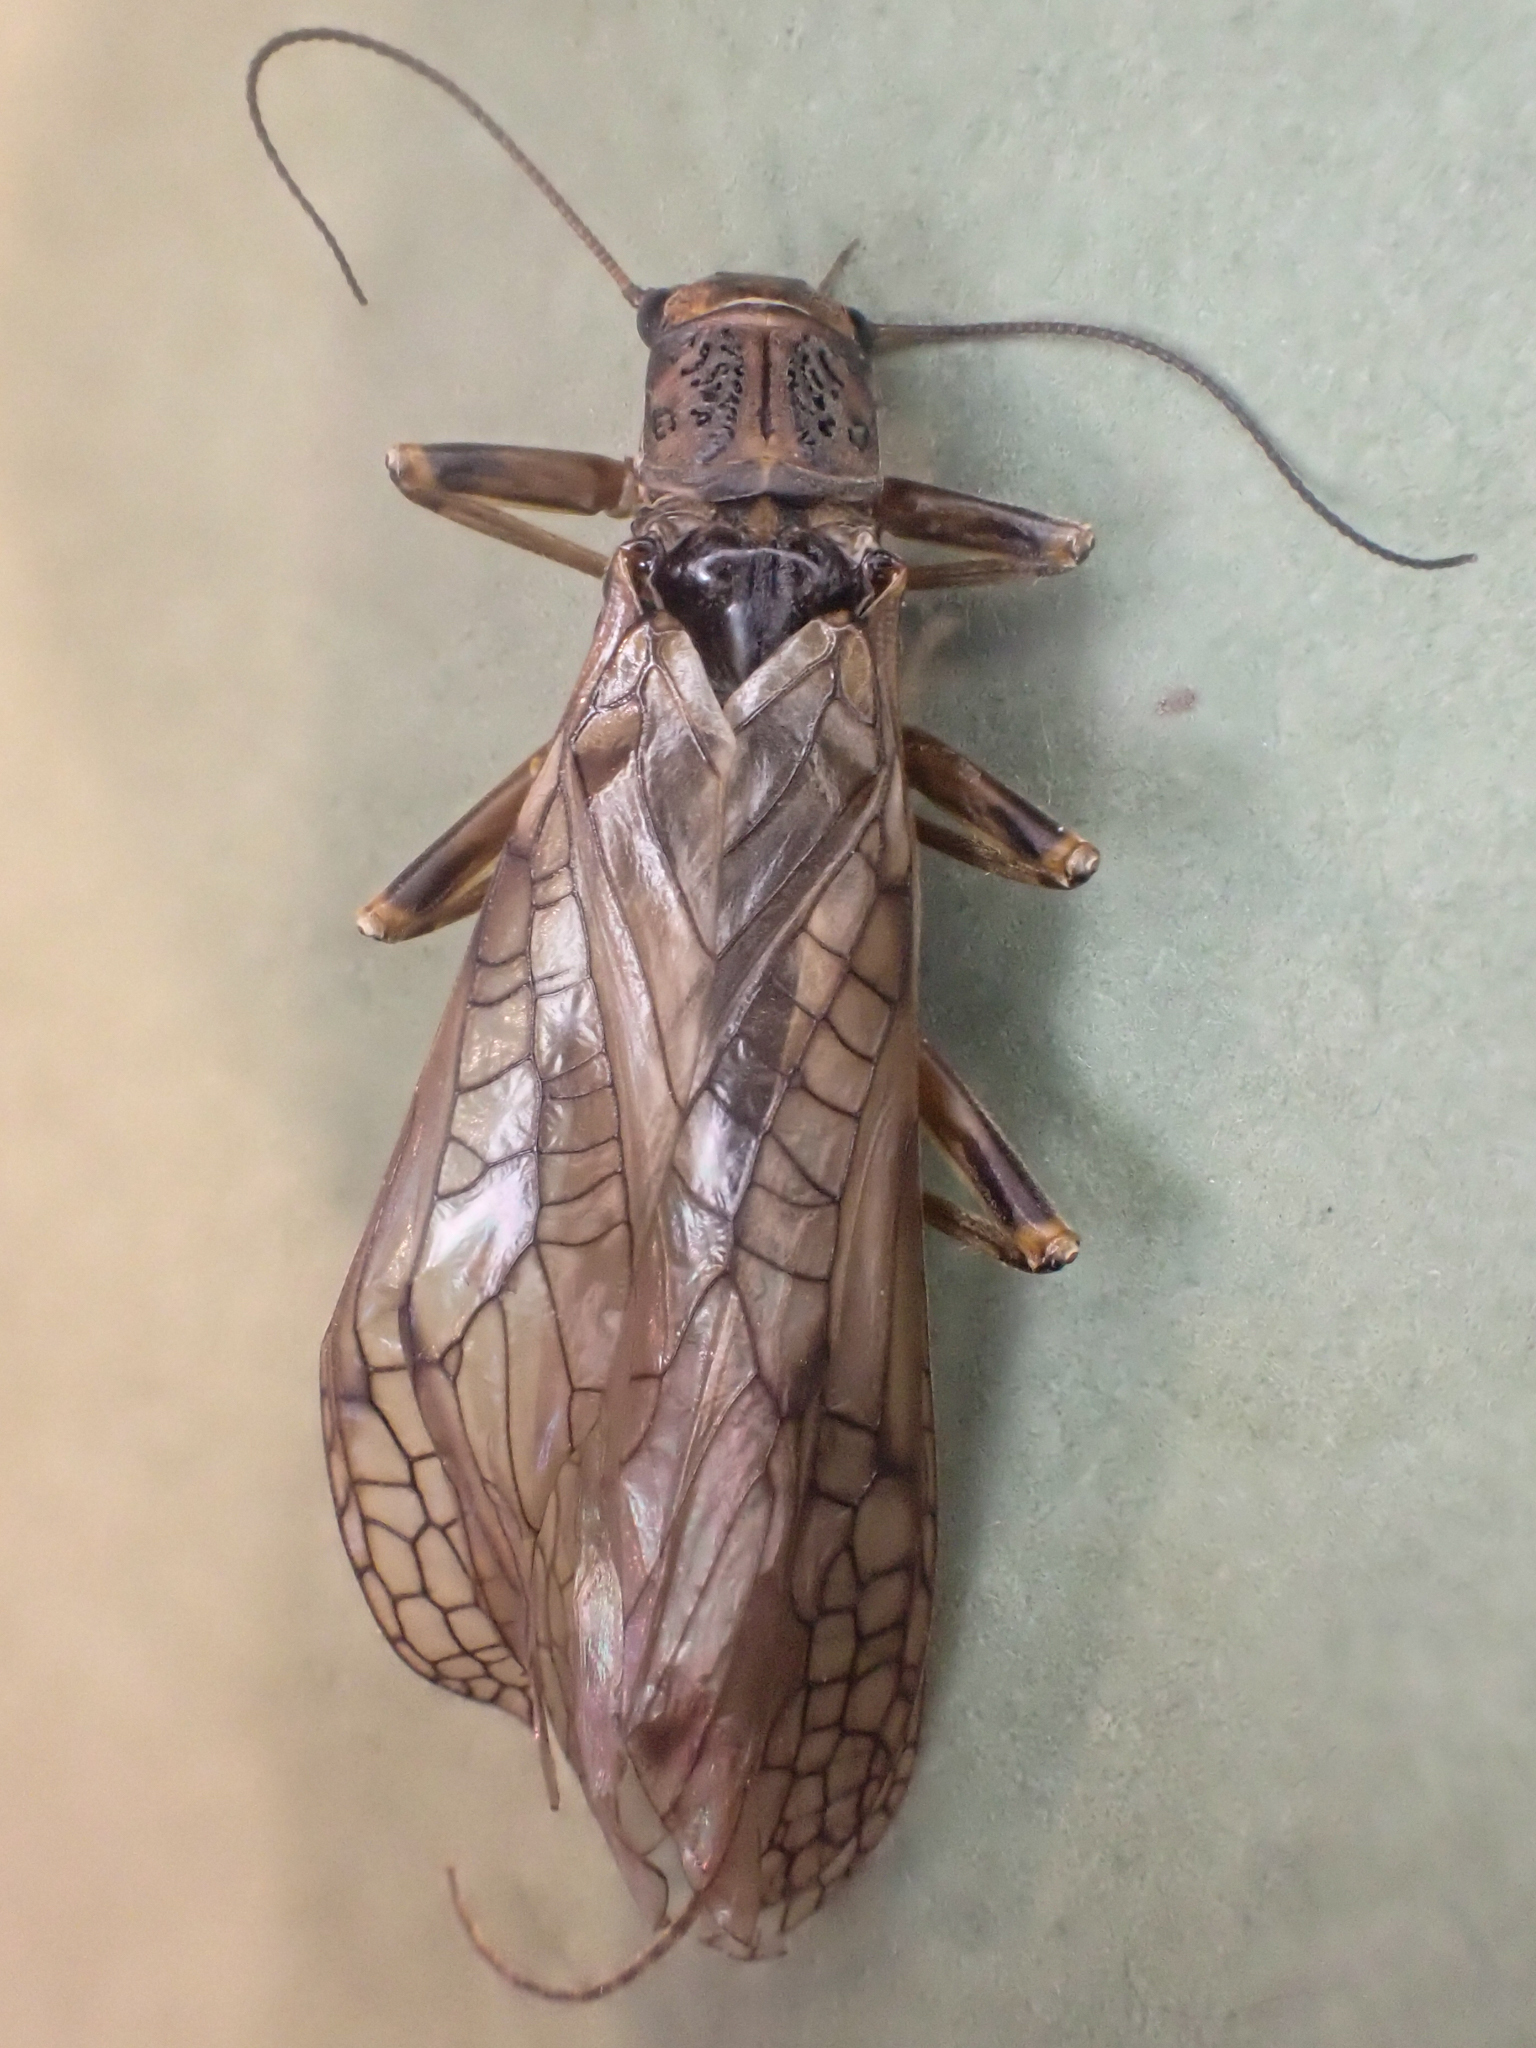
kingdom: Animalia
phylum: Arthropoda
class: Insecta
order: Plecoptera
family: Perlodidae
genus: Megarcys
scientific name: Megarcys signata
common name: Larimide springfly
